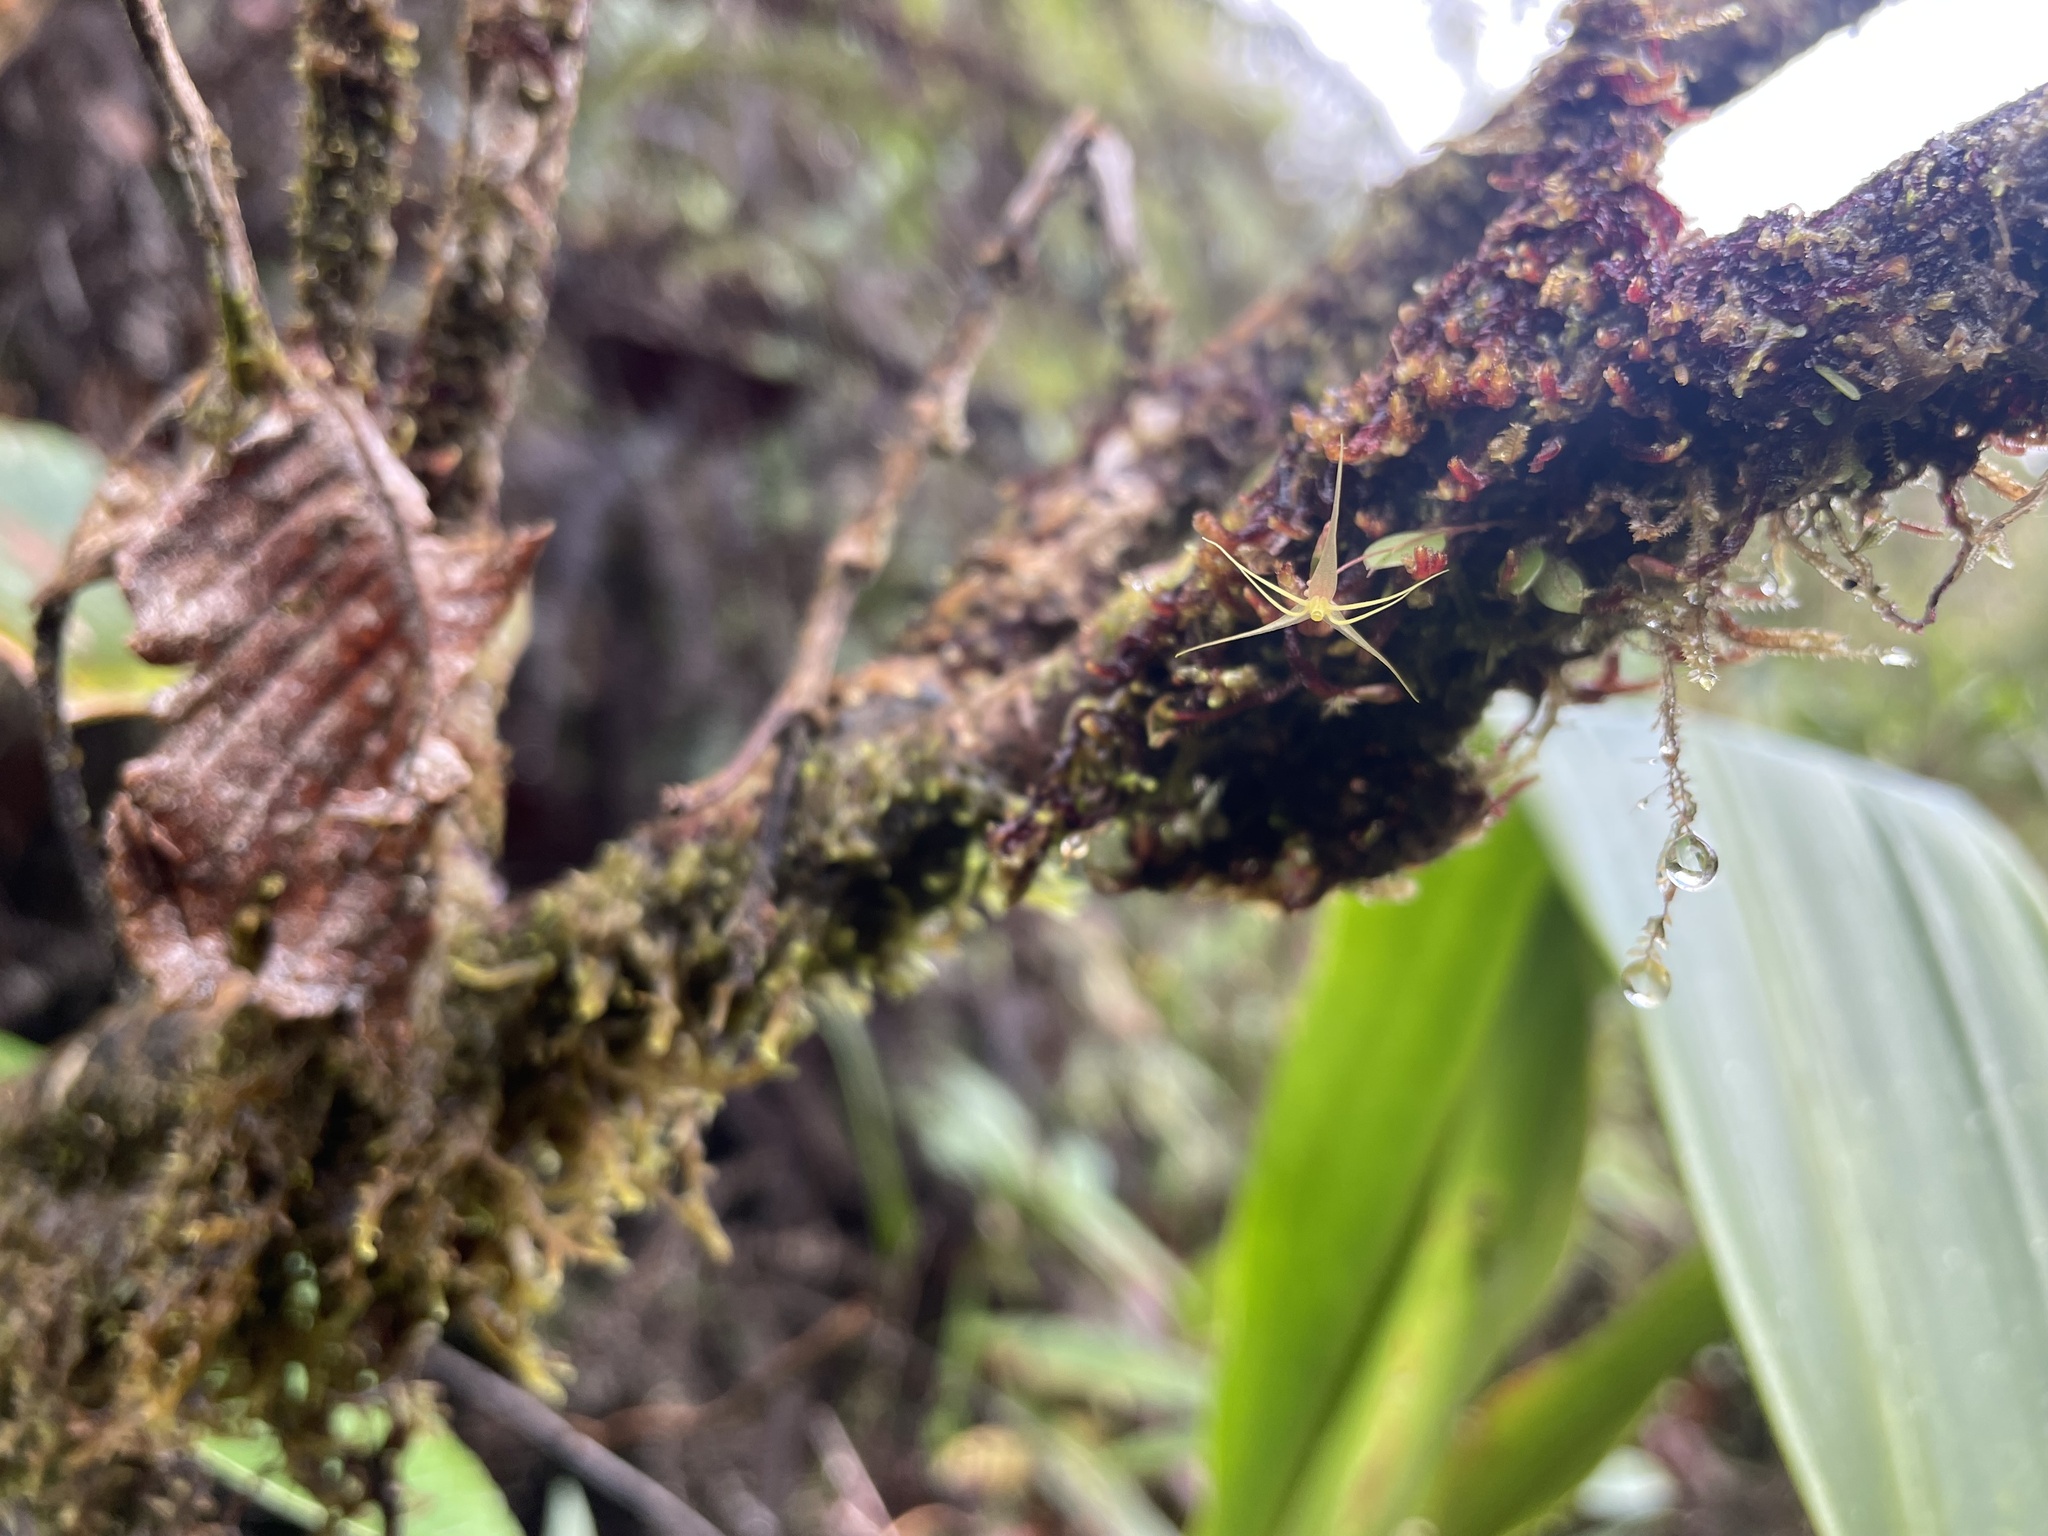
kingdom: Plantae
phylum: Tracheophyta
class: Liliopsida
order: Asparagales
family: Orchidaceae
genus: Lepanthes
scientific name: Lepanthes filamentosa
